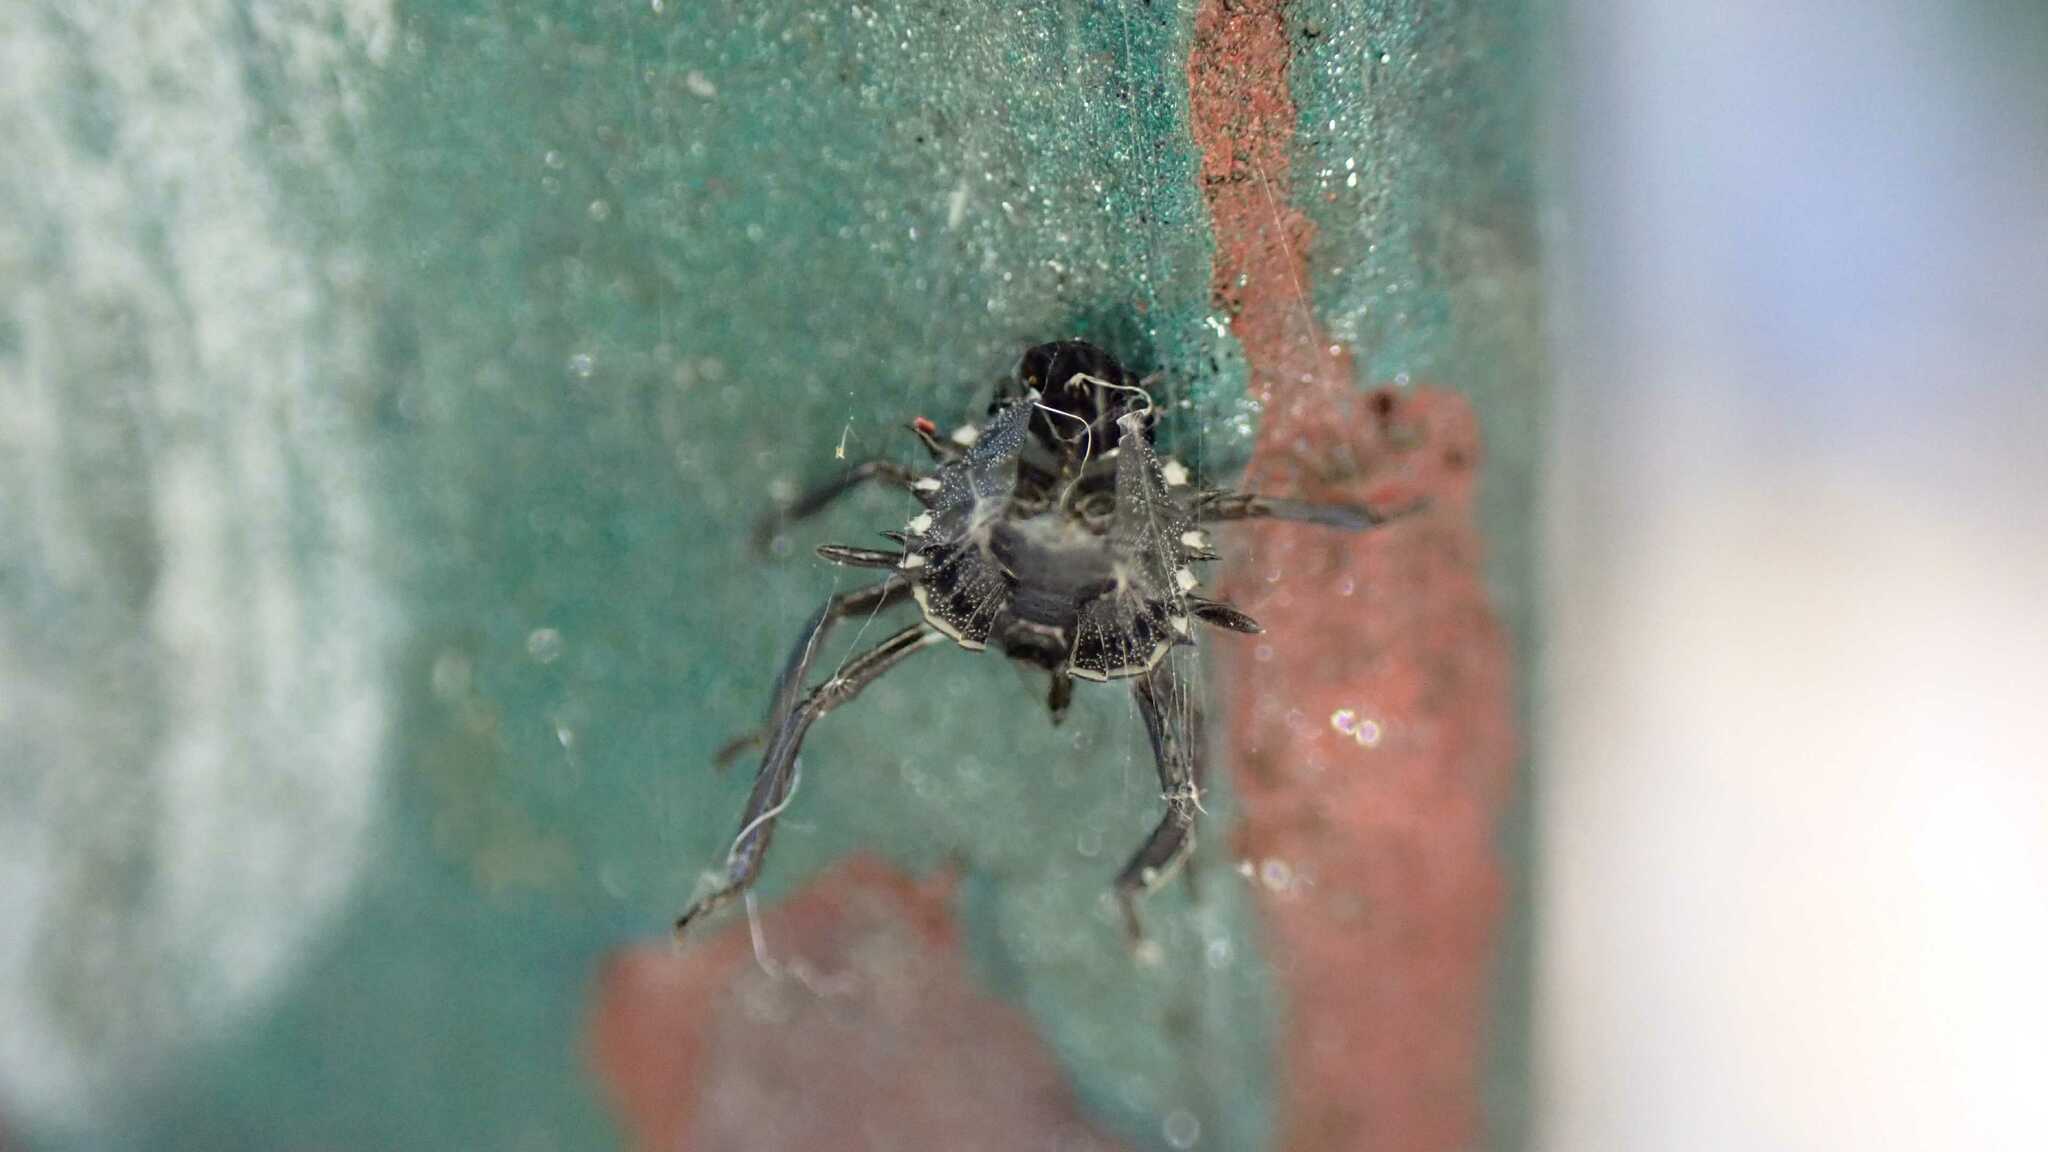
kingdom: Animalia
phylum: Arthropoda
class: Insecta
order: Hemiptera
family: Pentatomidae
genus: Halyomorpha
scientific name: Halyomorpha halys
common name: Brown marmorated stink bug
